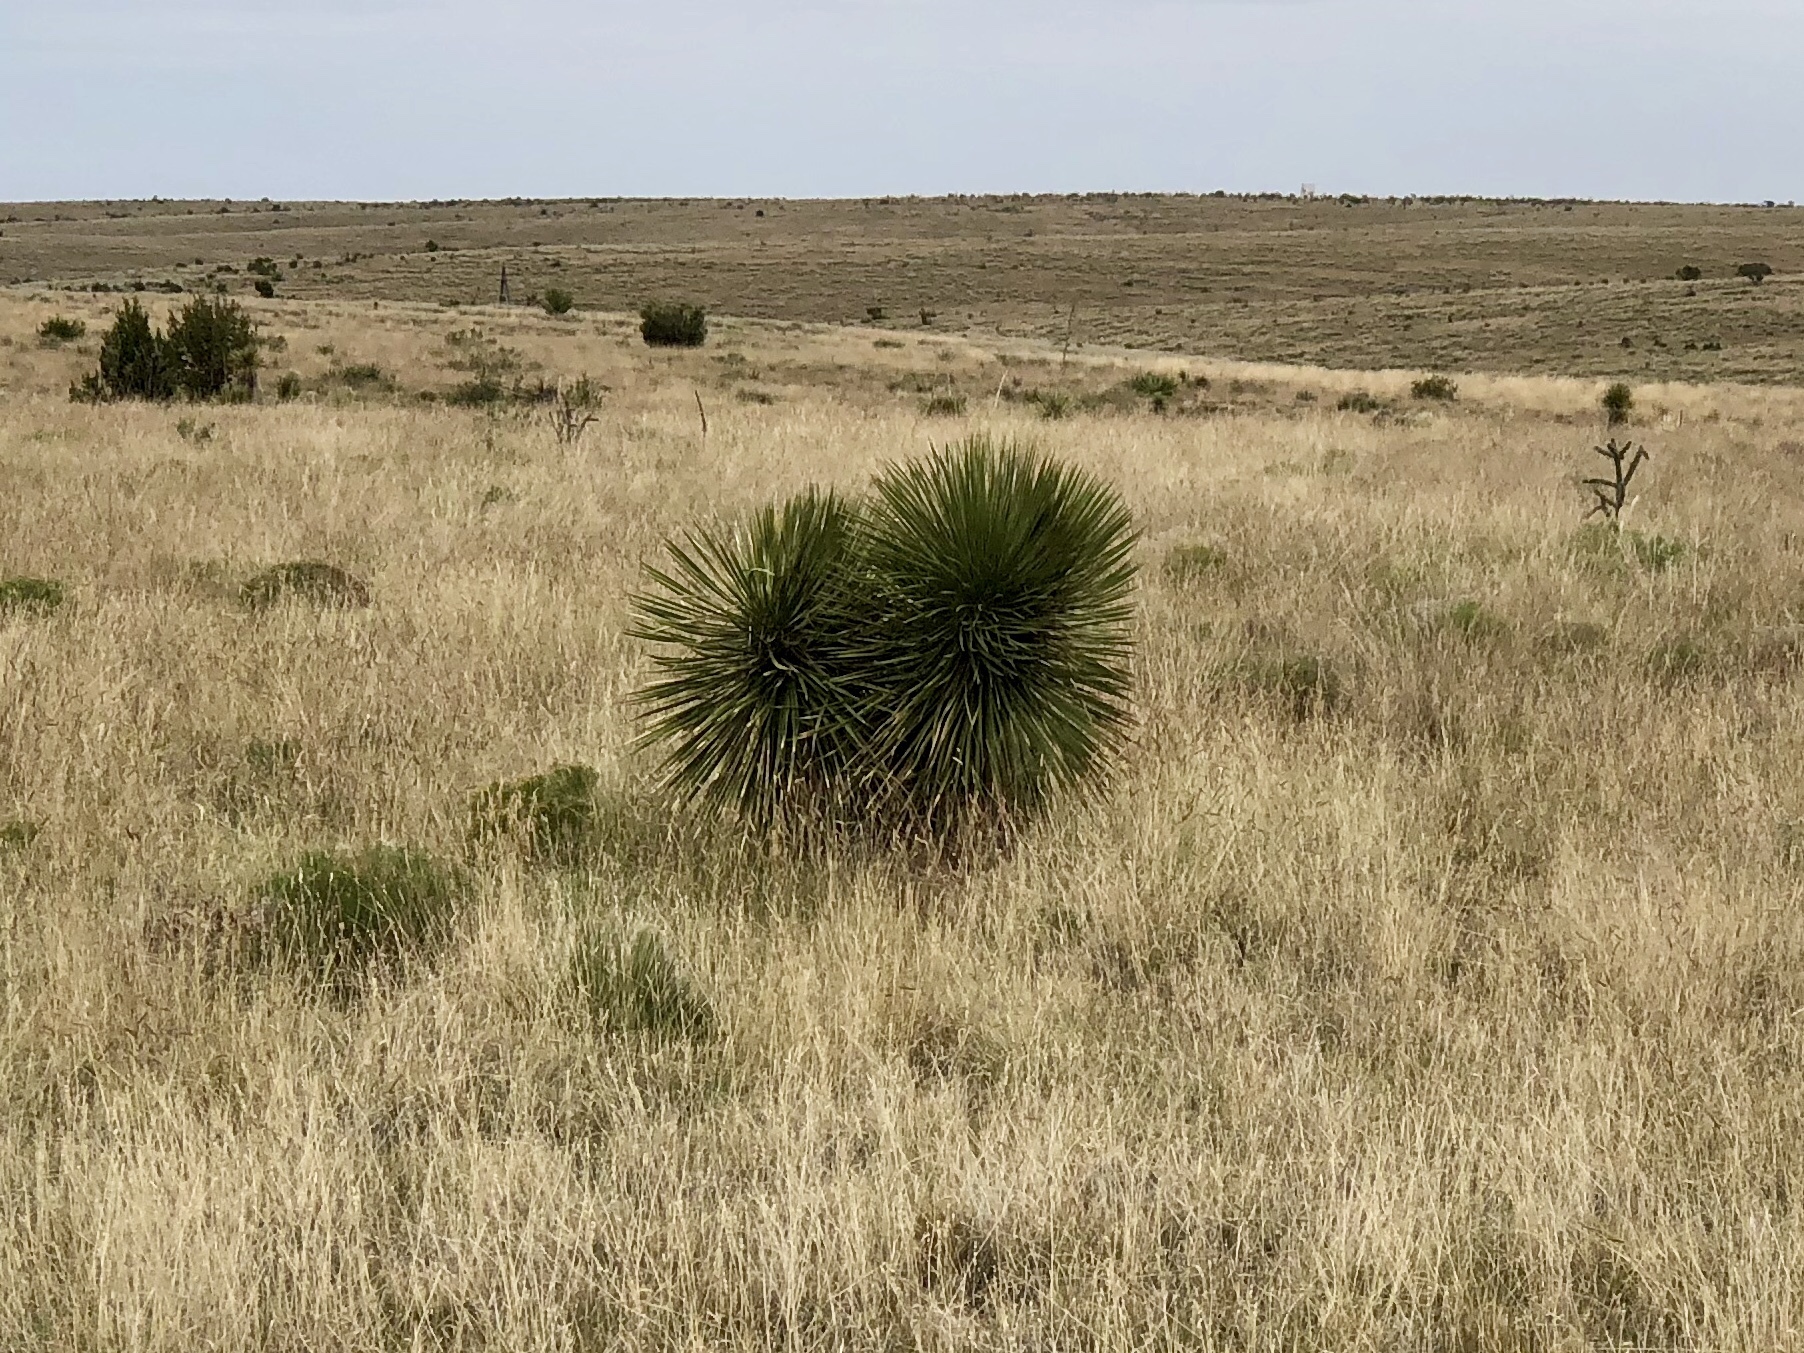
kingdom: Plantae
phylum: Tracheophyta
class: Liliopsida
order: Asparagales
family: Asparagaceae
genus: Yucca
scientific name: Yucca elata
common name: Palmella
